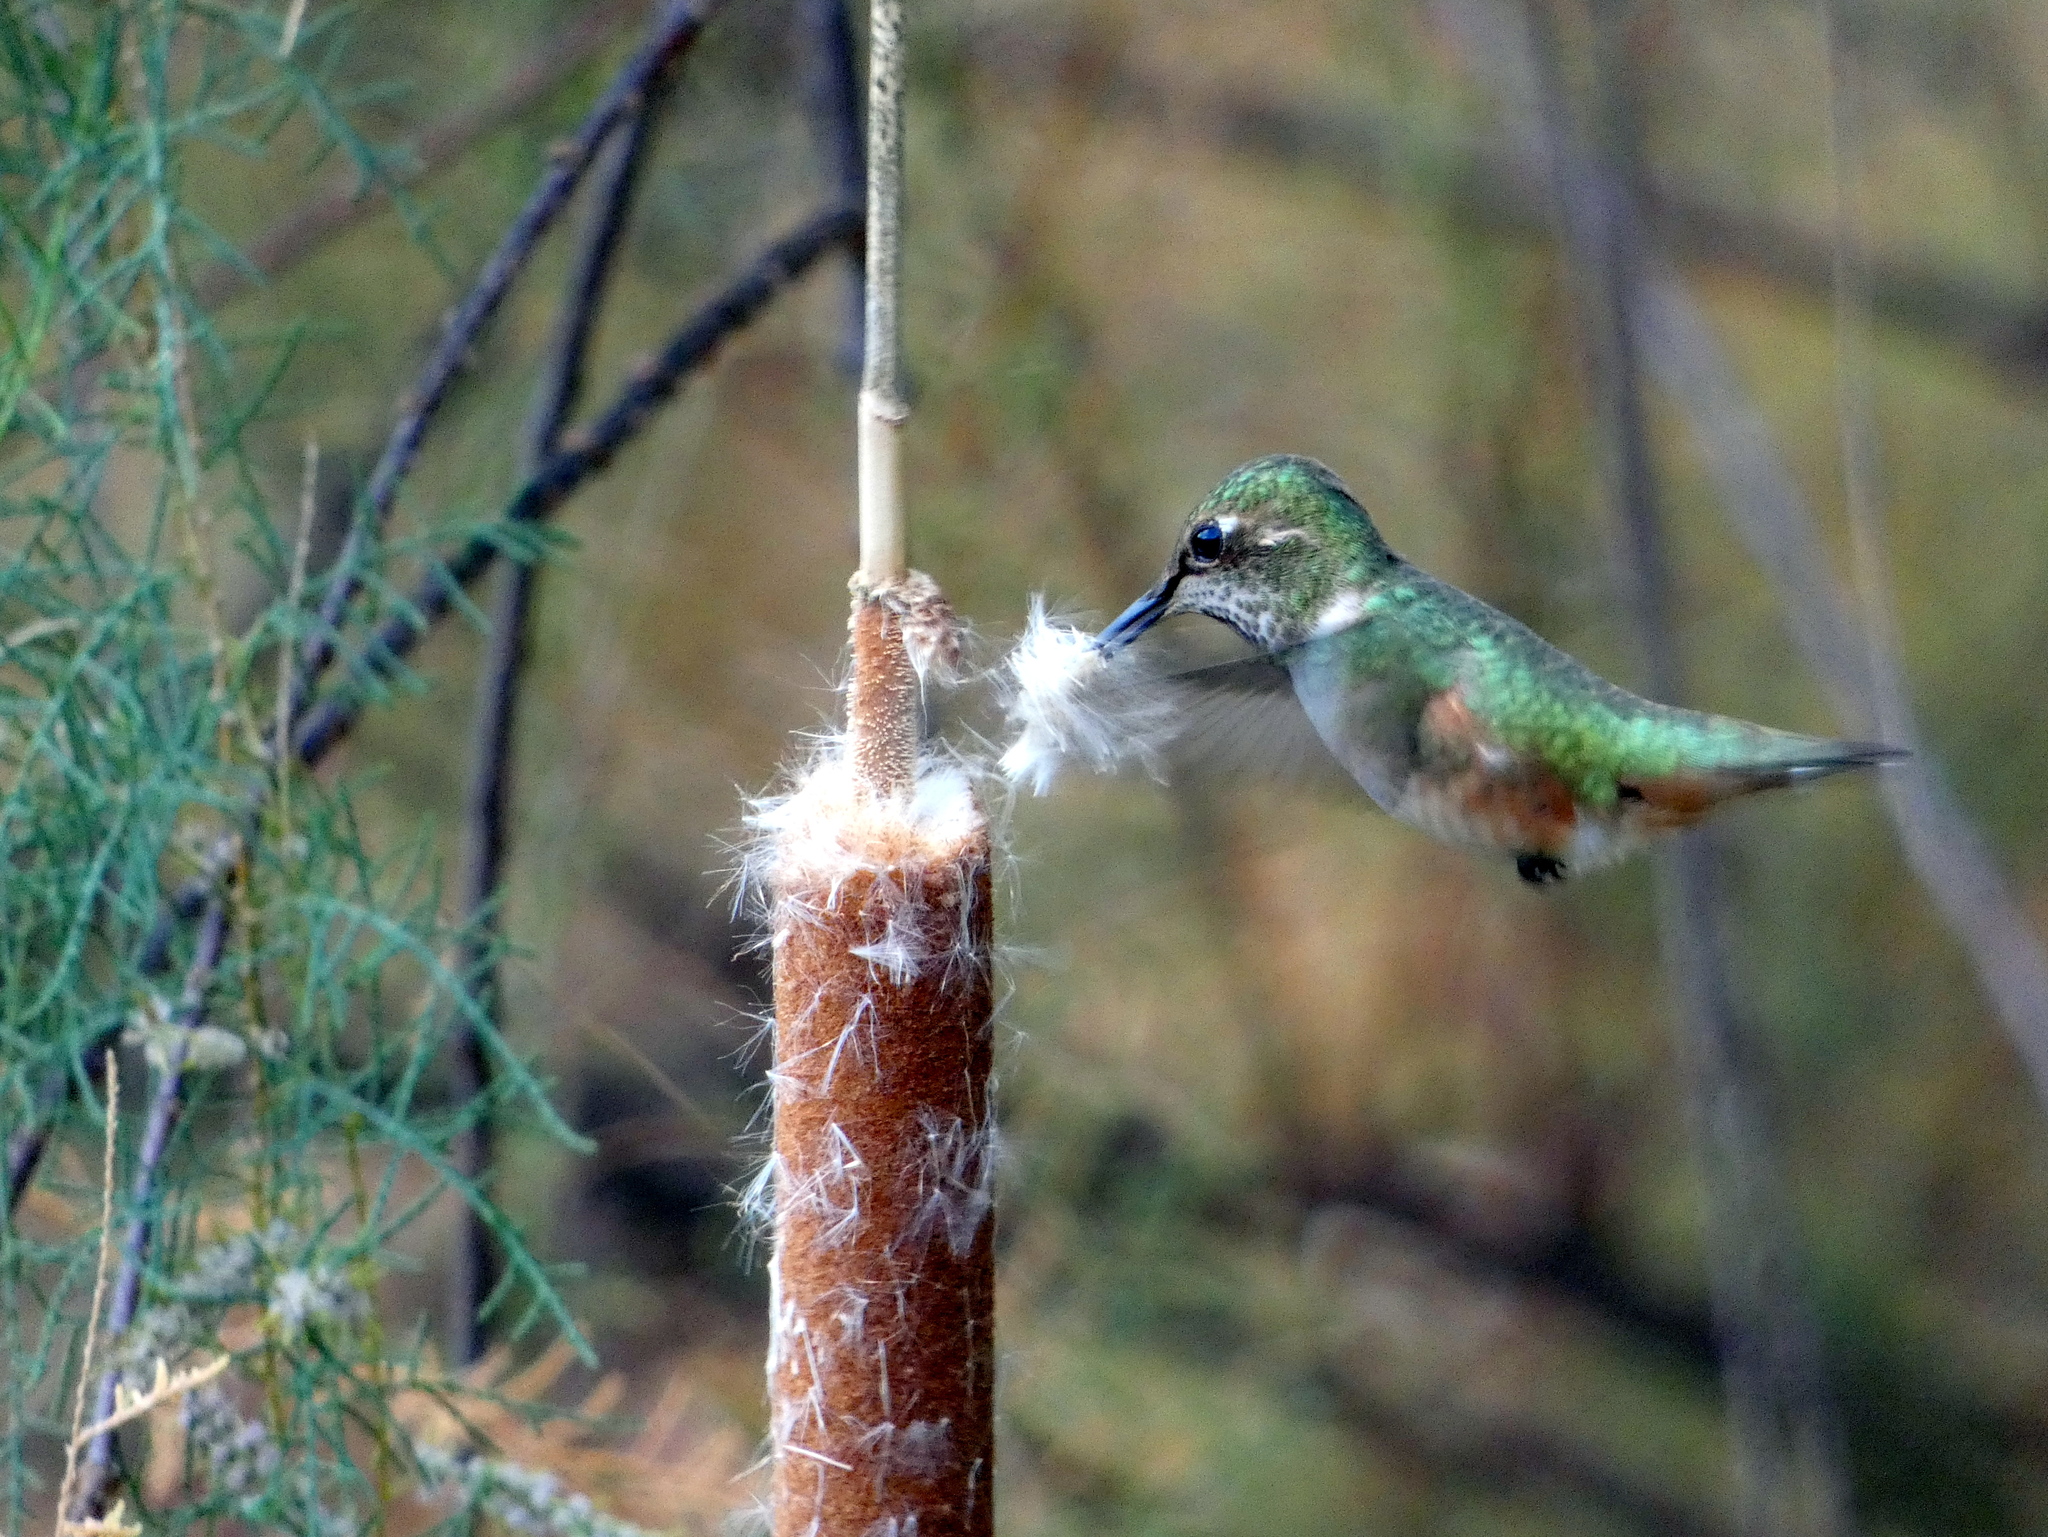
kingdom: Animalia
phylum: Chordata
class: Aves
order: Apodiformes
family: Trochilidae
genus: Selasphorus
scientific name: Selasphorus sasin
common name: Allen's hummingbird
